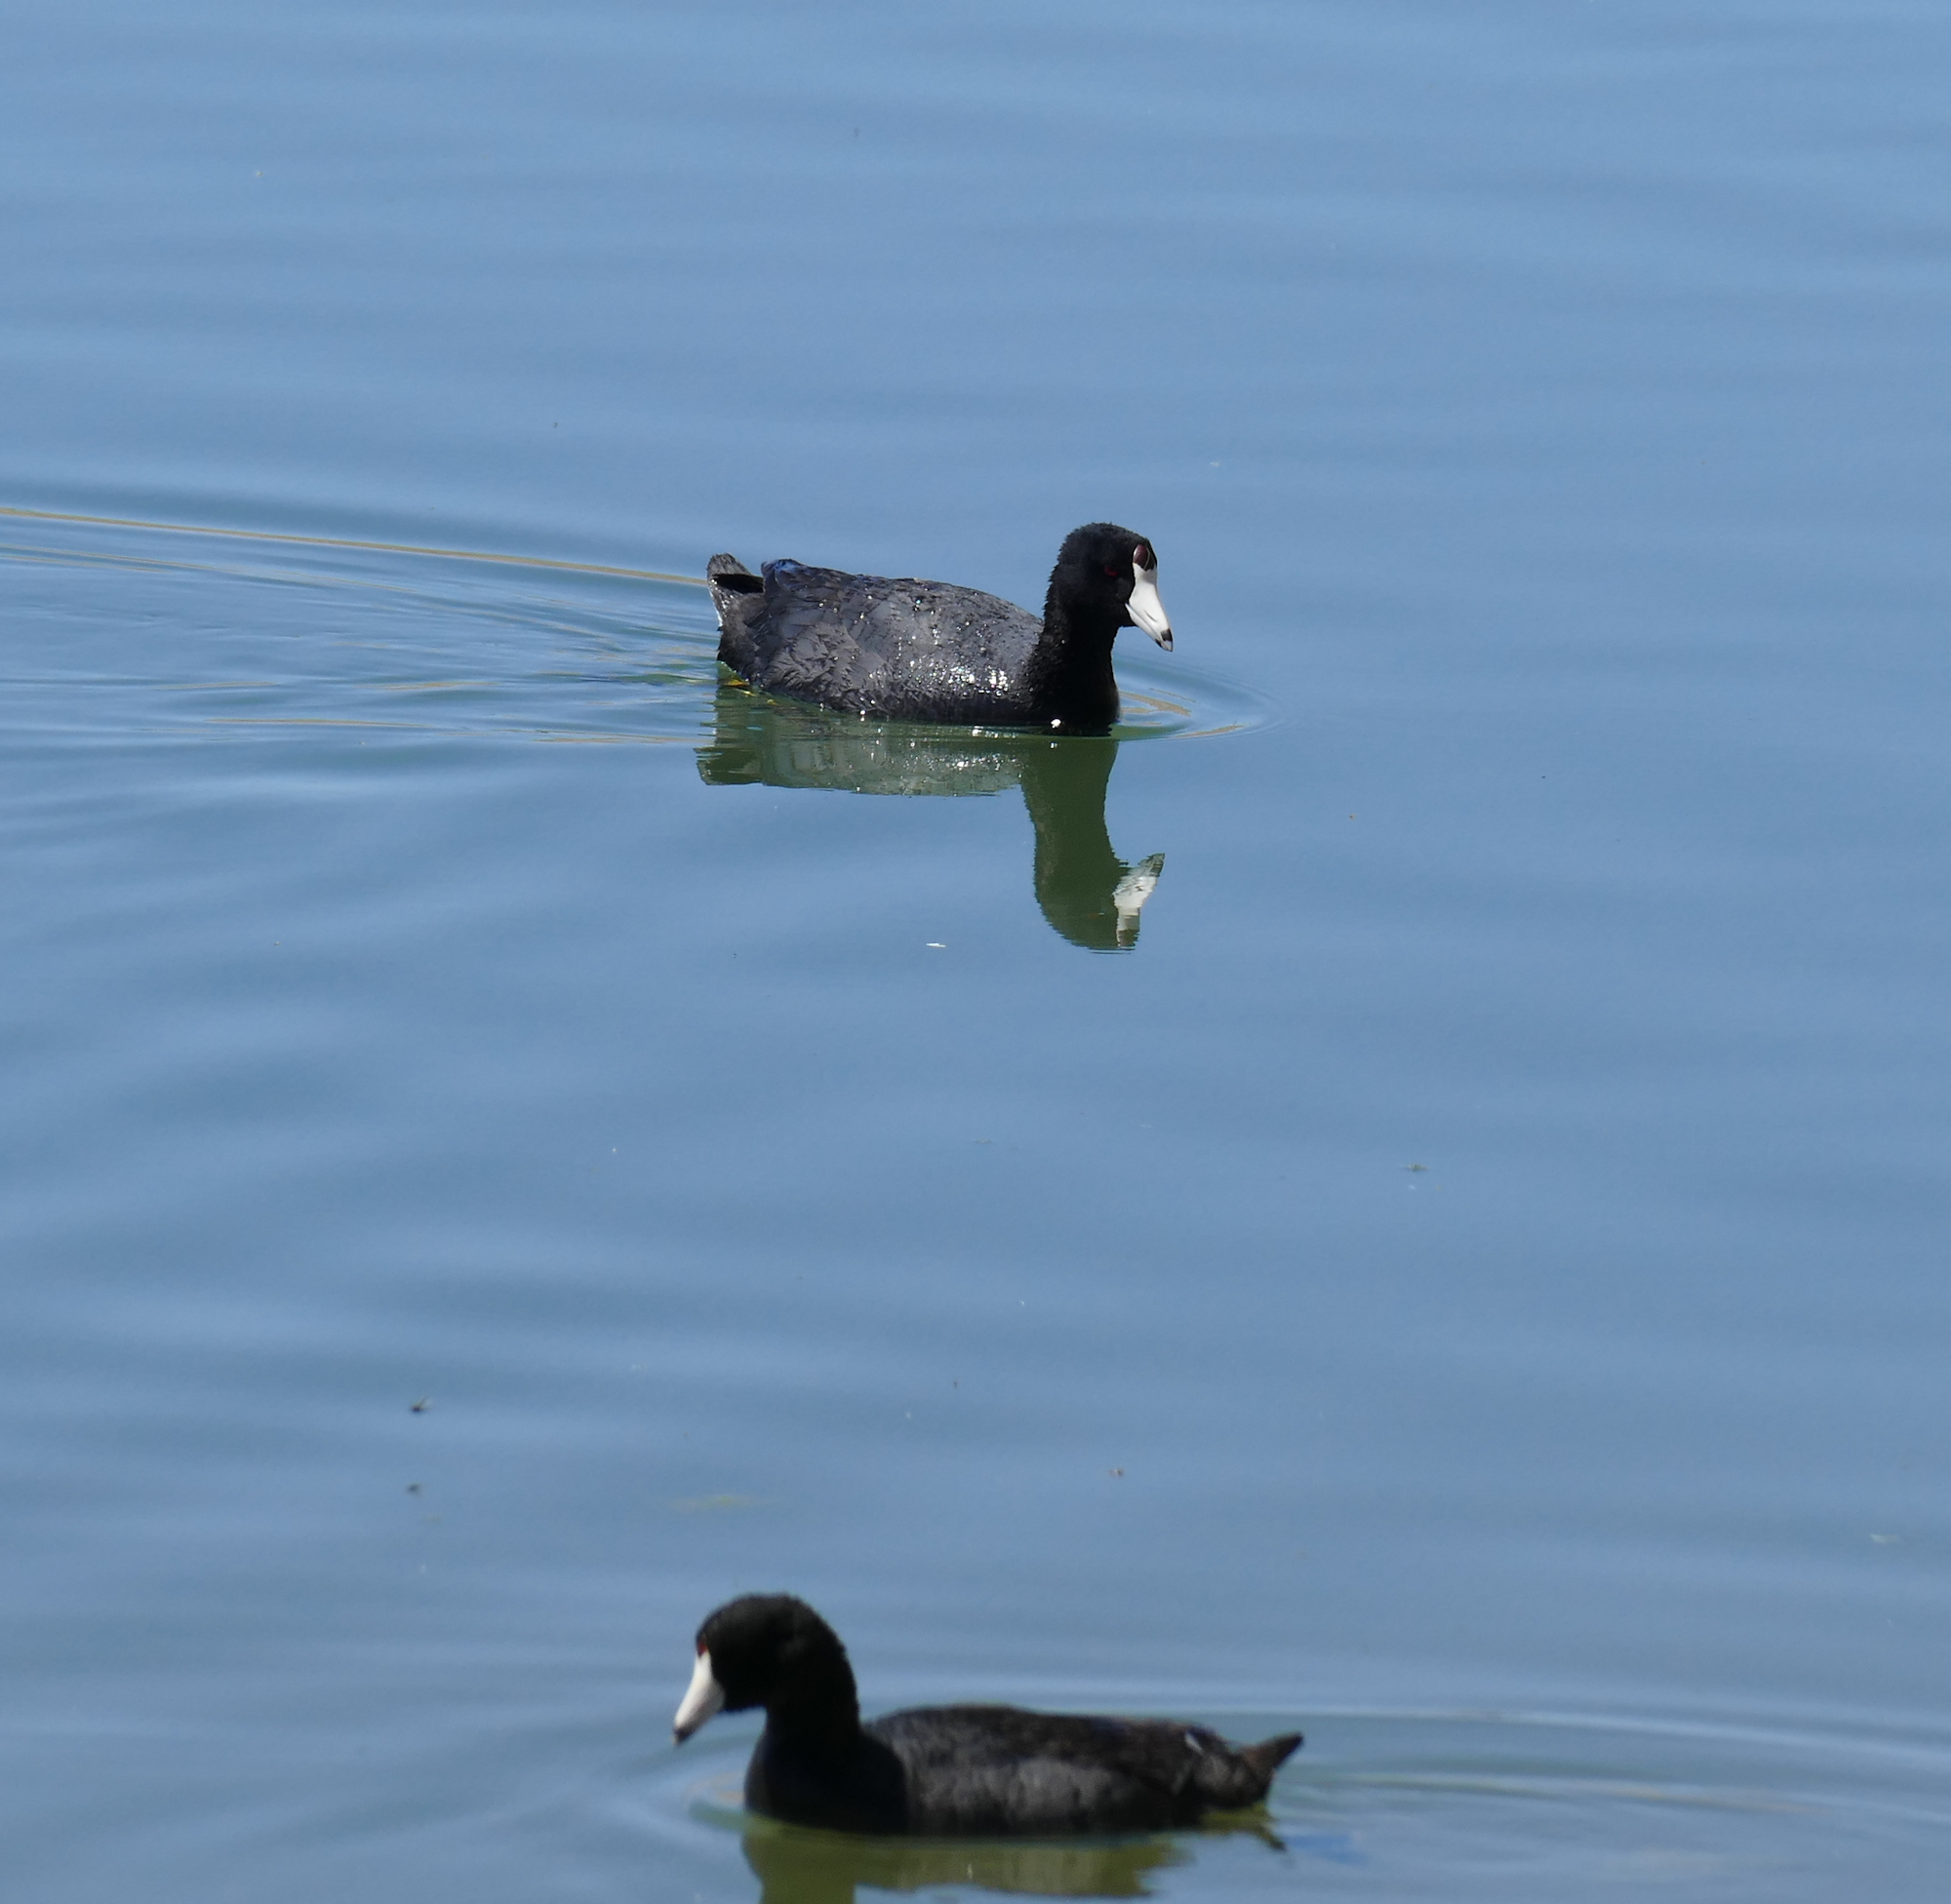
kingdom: Animalia
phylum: Chordata
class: Aves
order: Gruiformes
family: Rallidae
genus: Fulica
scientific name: Fulica americana
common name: American coot
